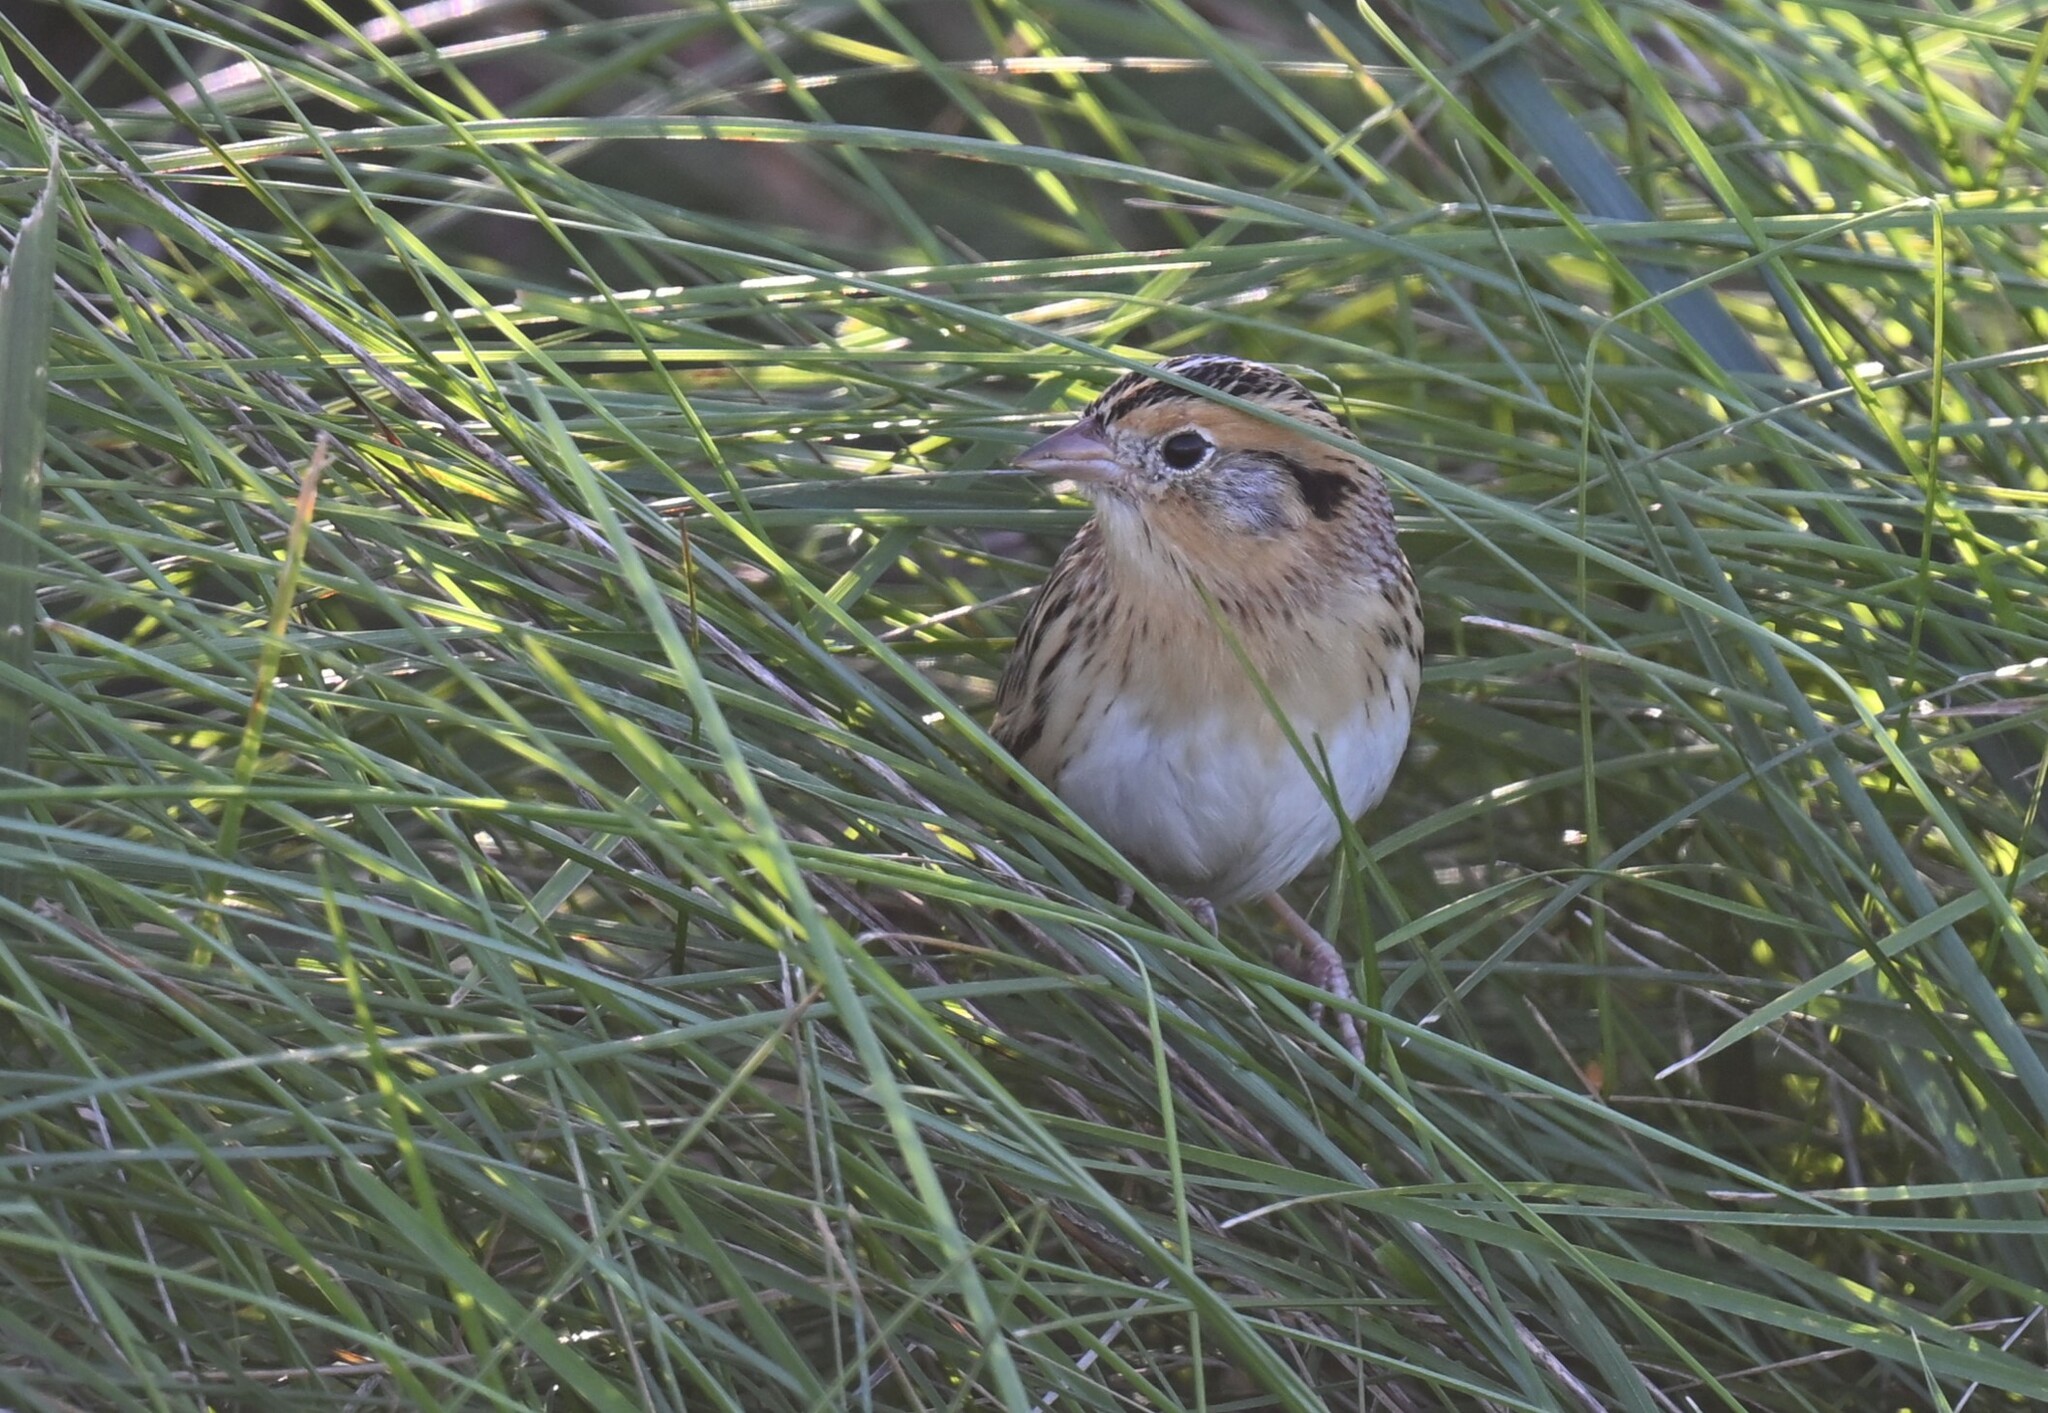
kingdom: Animalia
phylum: Chordata
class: Aves
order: Passeriformes
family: Passerellidae
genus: Ammospiza
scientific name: Ammospiza leconteii
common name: Le conte's sparrow
